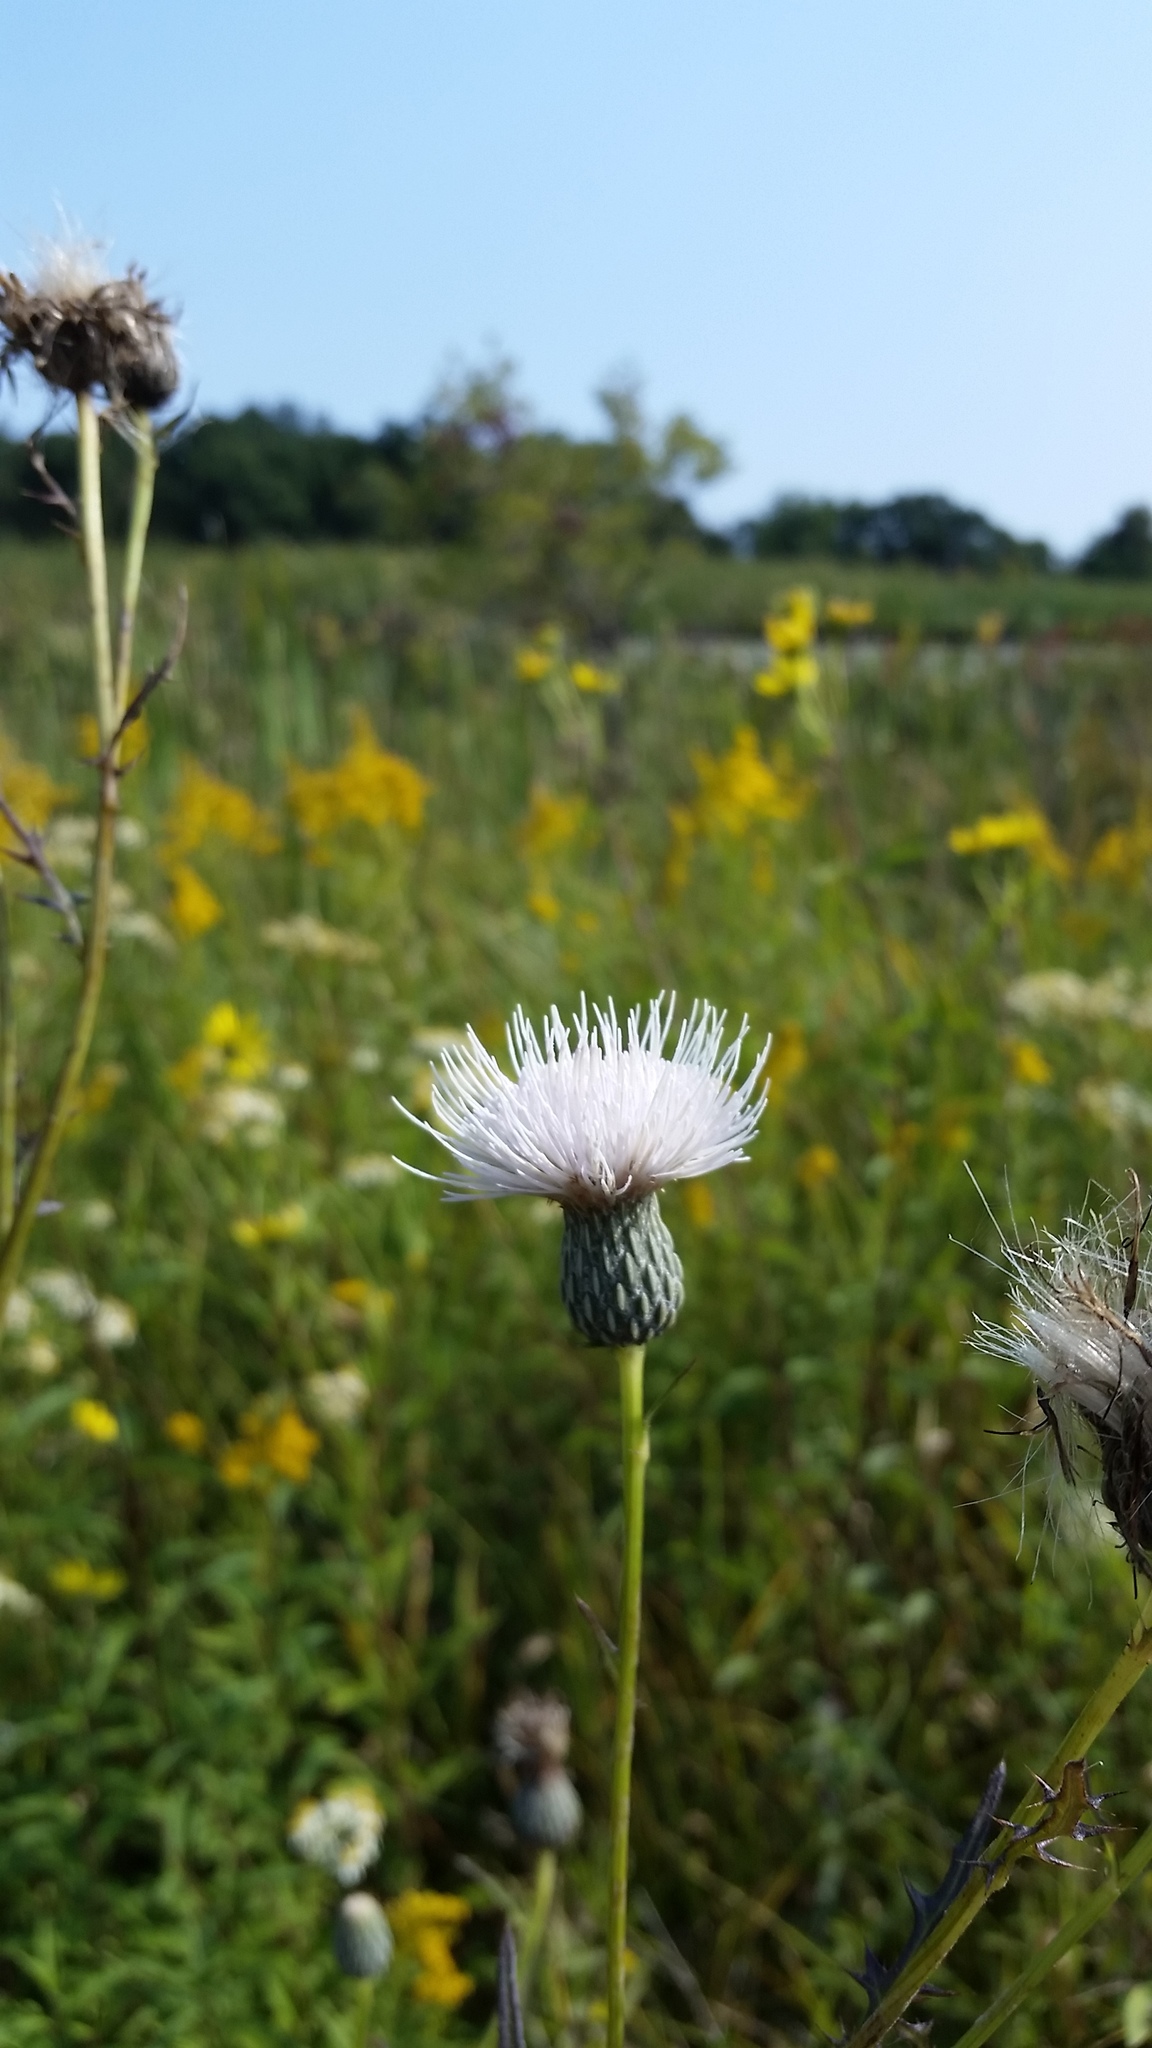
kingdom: Plantae
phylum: Tracheophyta
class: Magnoliopsida
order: Asterales
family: Asteraceae
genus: Cirsium
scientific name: Cirsium muticum
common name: Dunce-nettle
